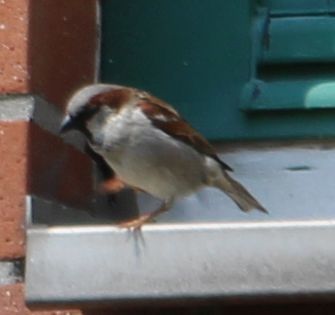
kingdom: Animalia
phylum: Chordata
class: Aves
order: Passeriformes
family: Passeridae
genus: Passer
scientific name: Passer domesticus
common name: House sparrow
